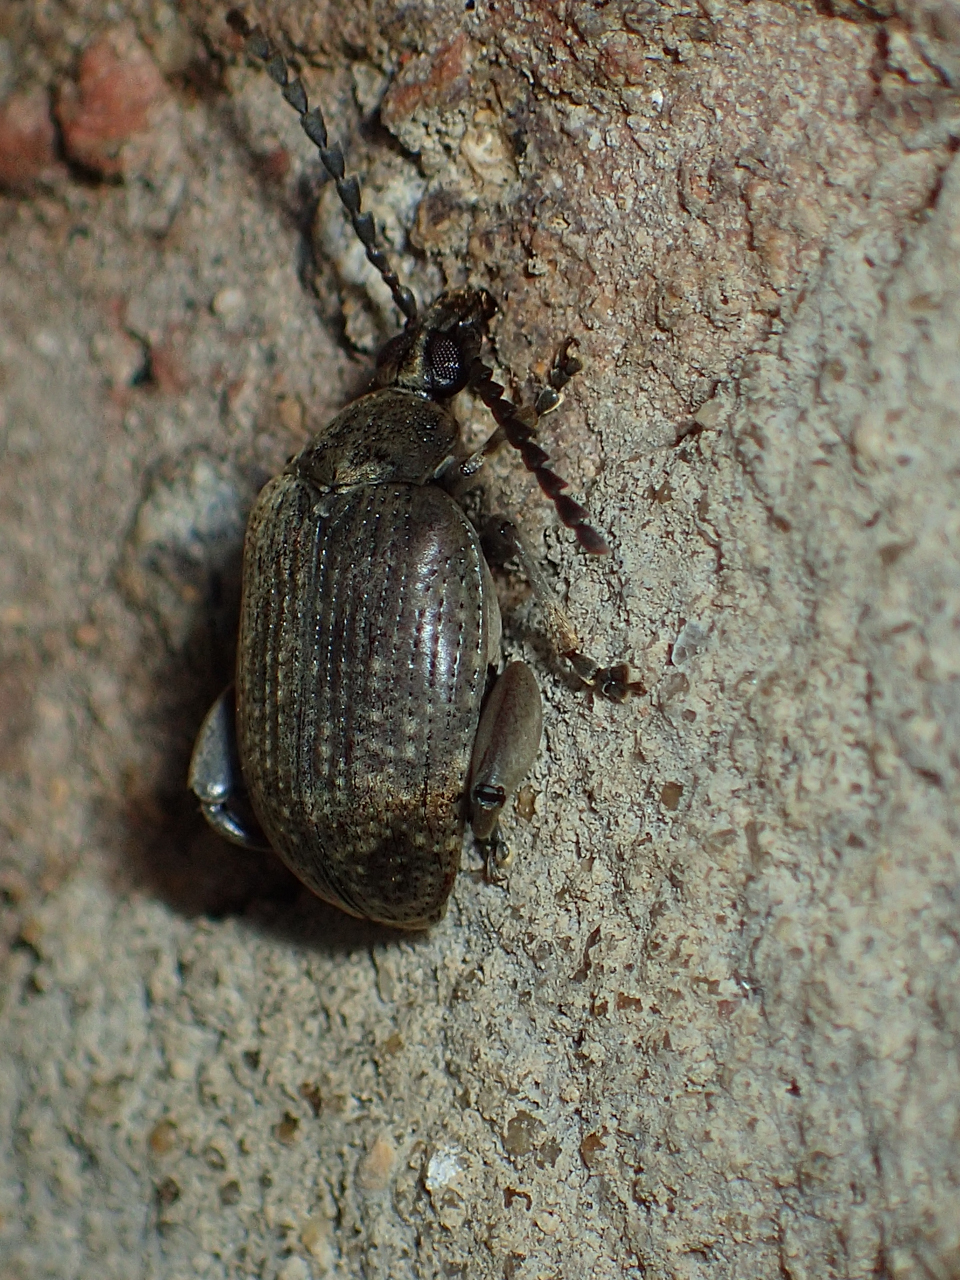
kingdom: Animalia
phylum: Arthropoda
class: Insecta
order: Coleoptera
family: Chrysomelidae
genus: Caryobruchus
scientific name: Caryobruchus gleditsiae
